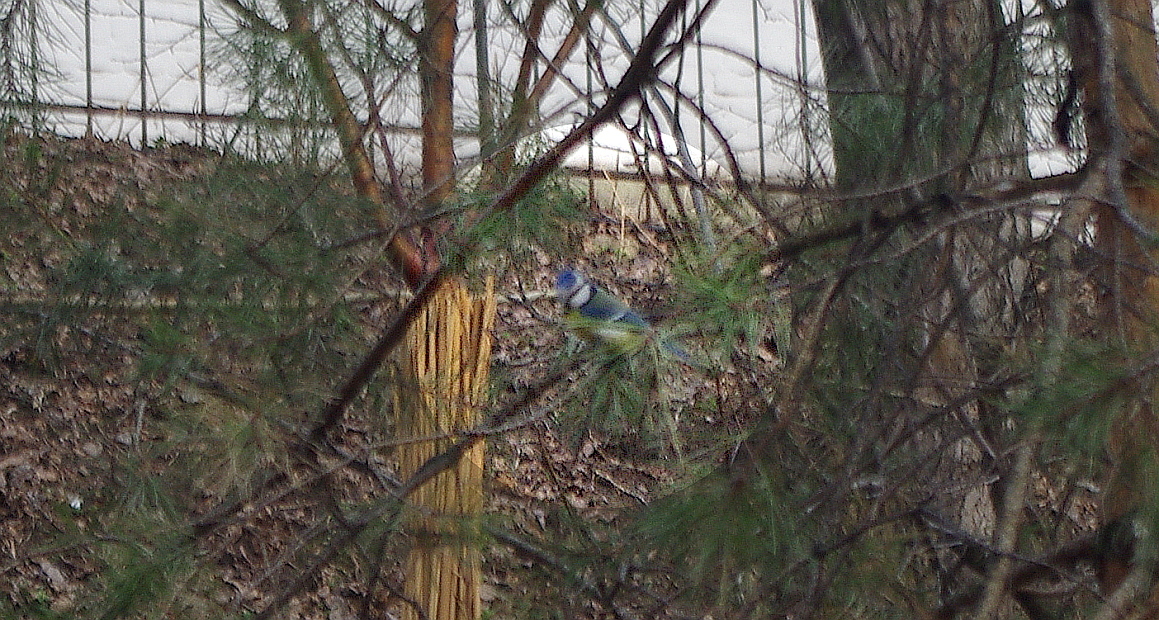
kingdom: Animalia
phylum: Chordata
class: Aves
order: Passeriformes
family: Paridae
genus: Cyanistes
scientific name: Cyanistes caeruleus
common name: Eurasian blue tit
